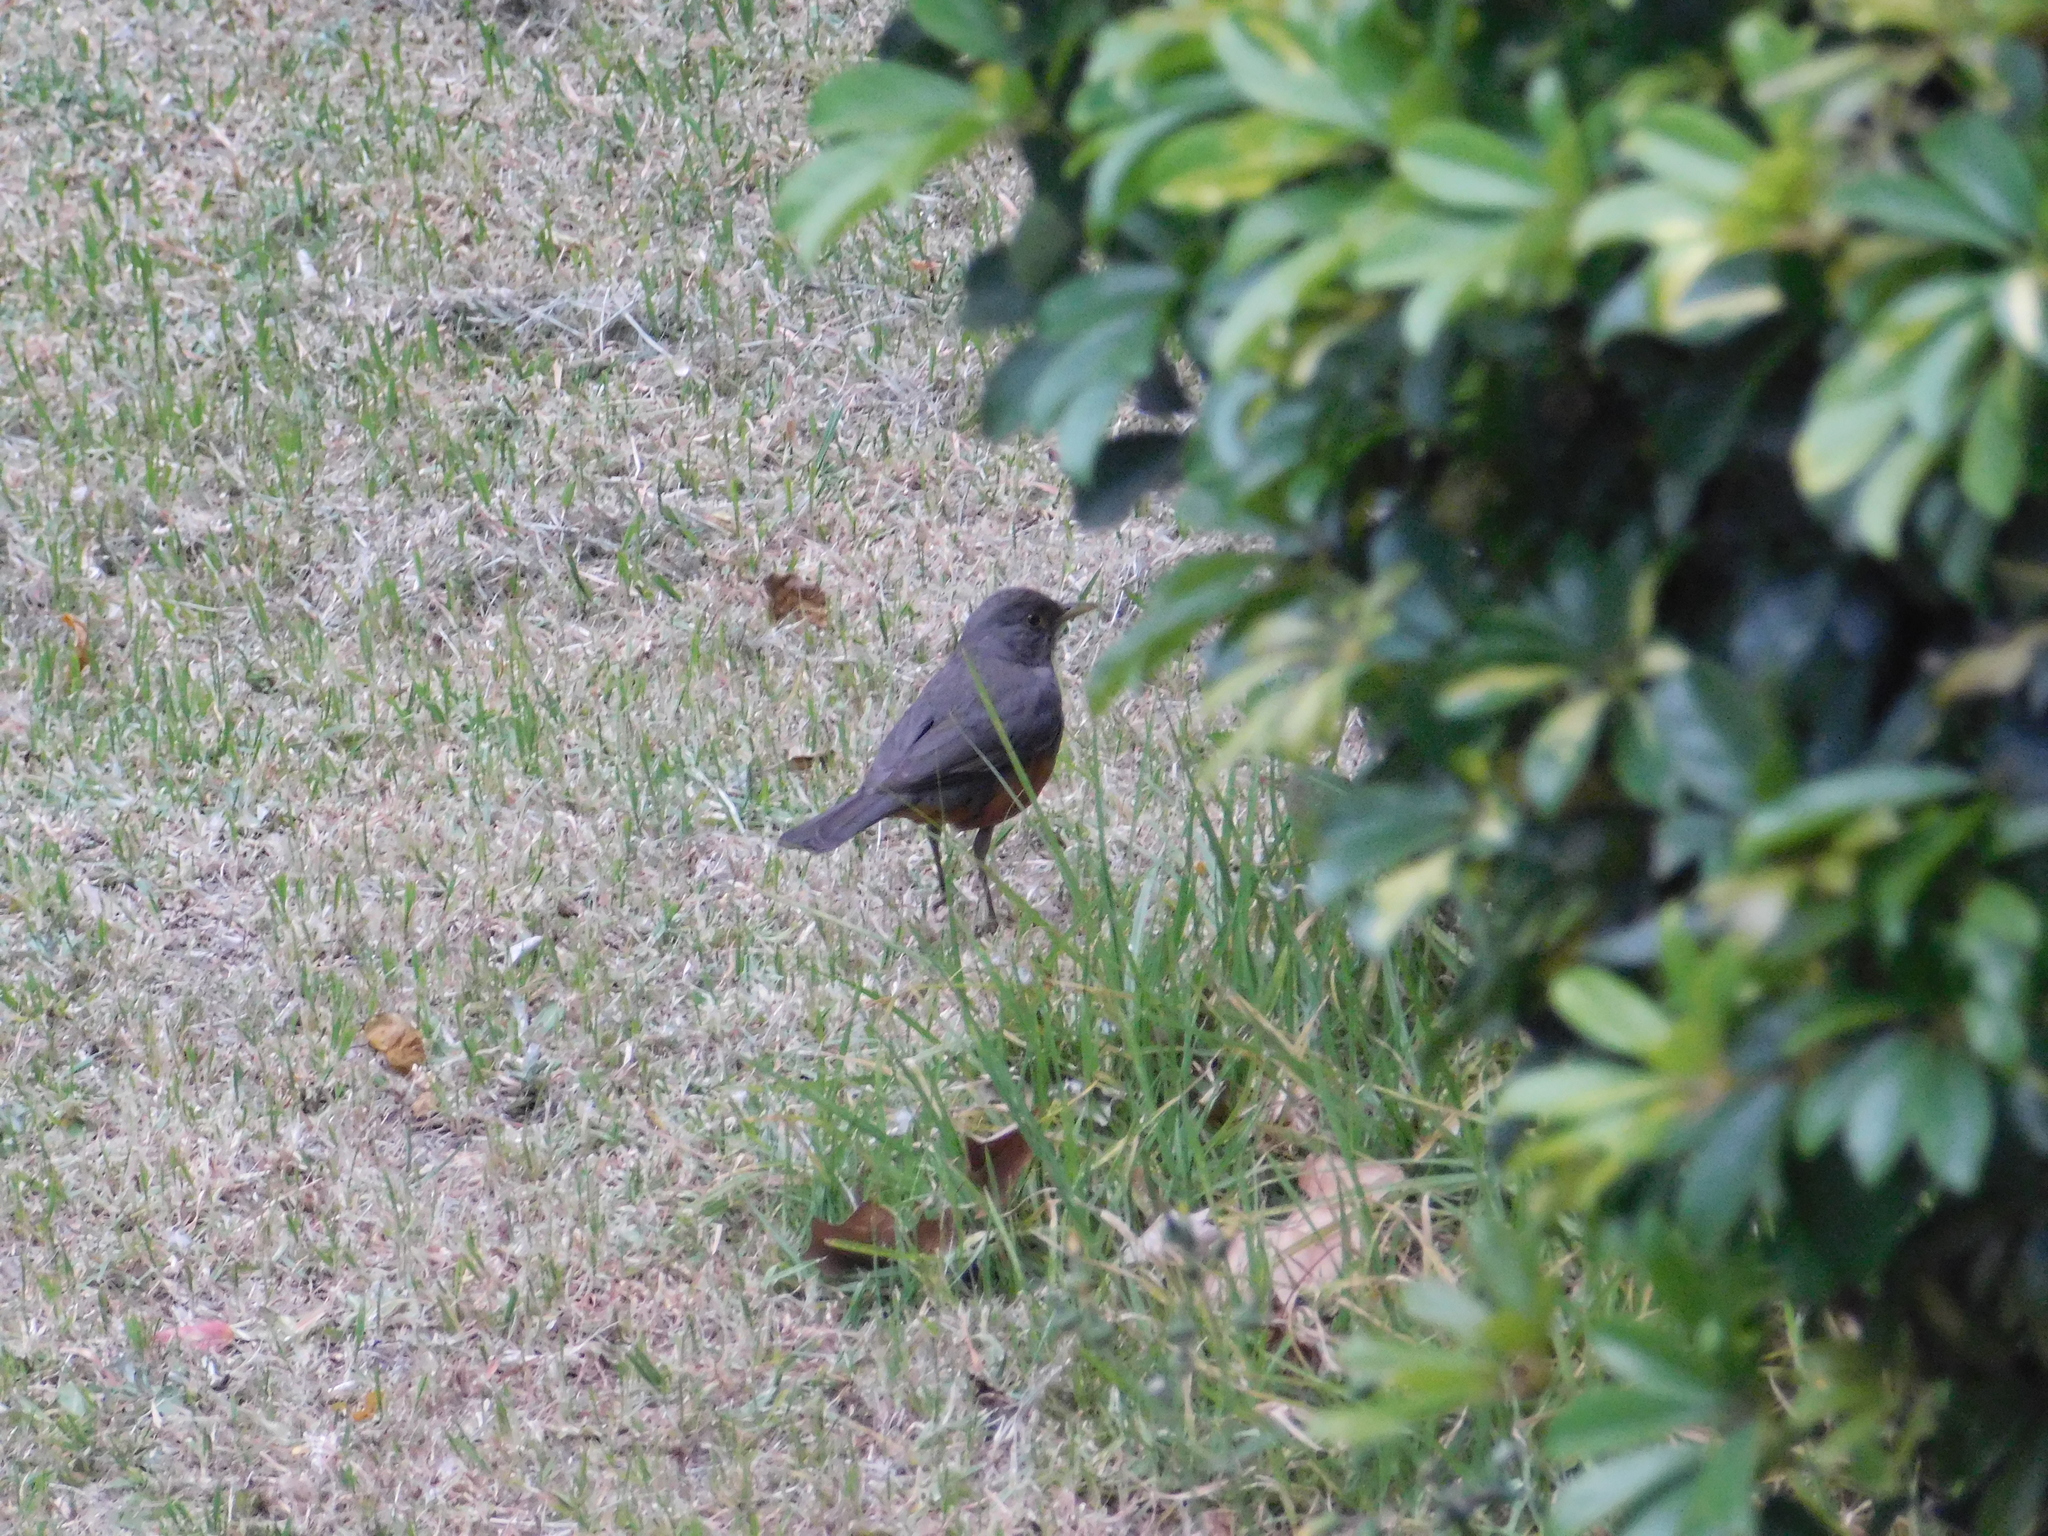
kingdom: Animalia
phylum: Chordata
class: Aves
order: Passeriformes
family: Turdidae
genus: Turdus
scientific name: Turdus rufiventris
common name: Rufous-bellied thrush
